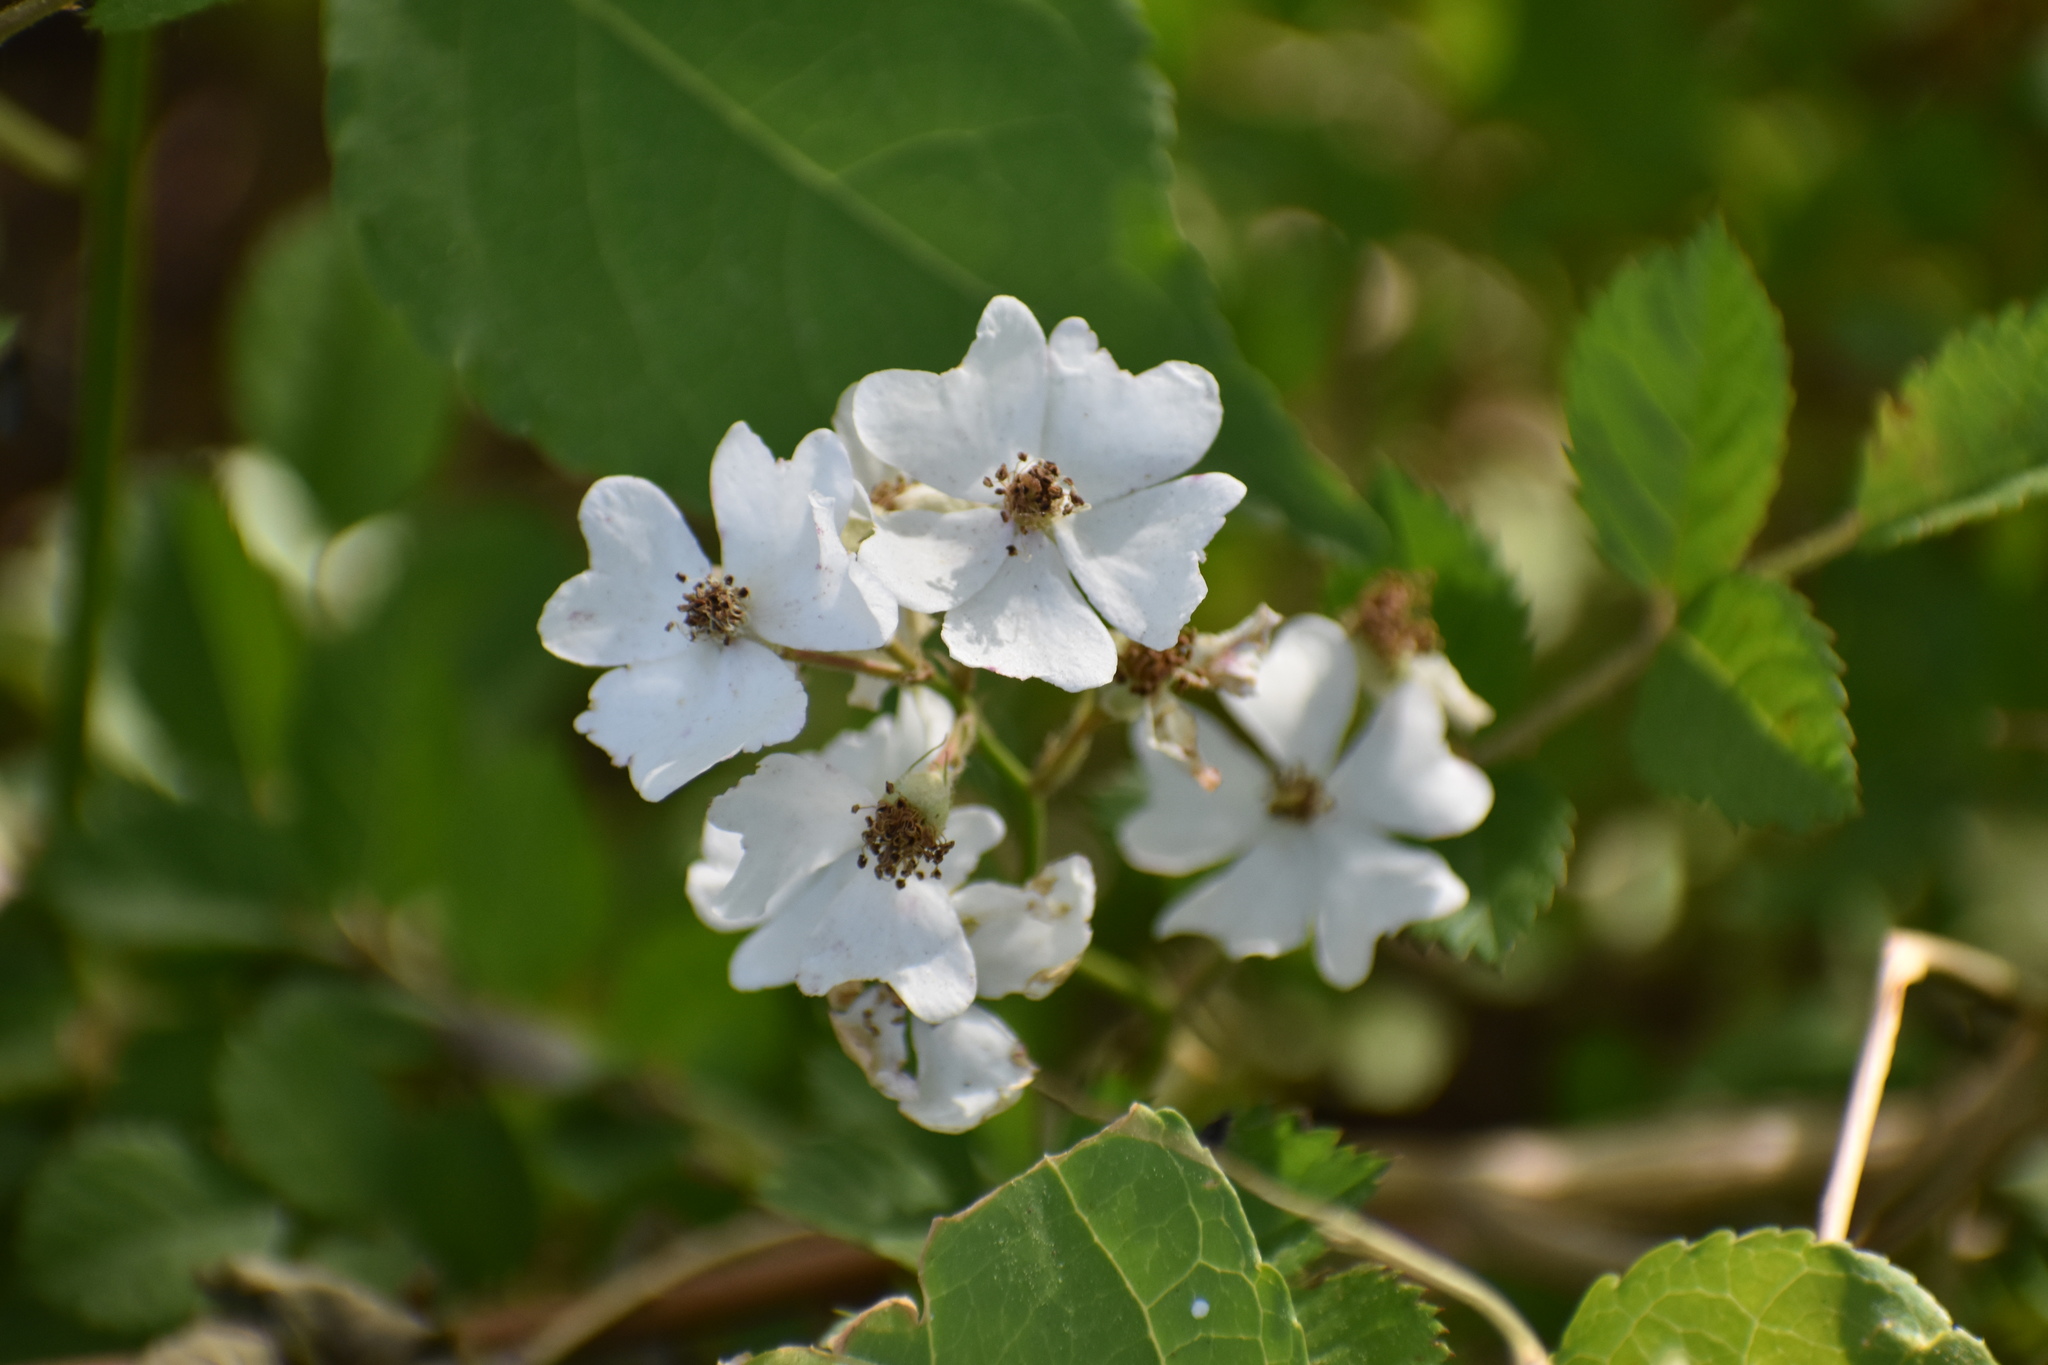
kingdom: Plantae
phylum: Tracheophyta
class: Magnoliopsida
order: Rosales
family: Rosaceae
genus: Rosa
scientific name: Rosa multiflora
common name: Multiflora rose
